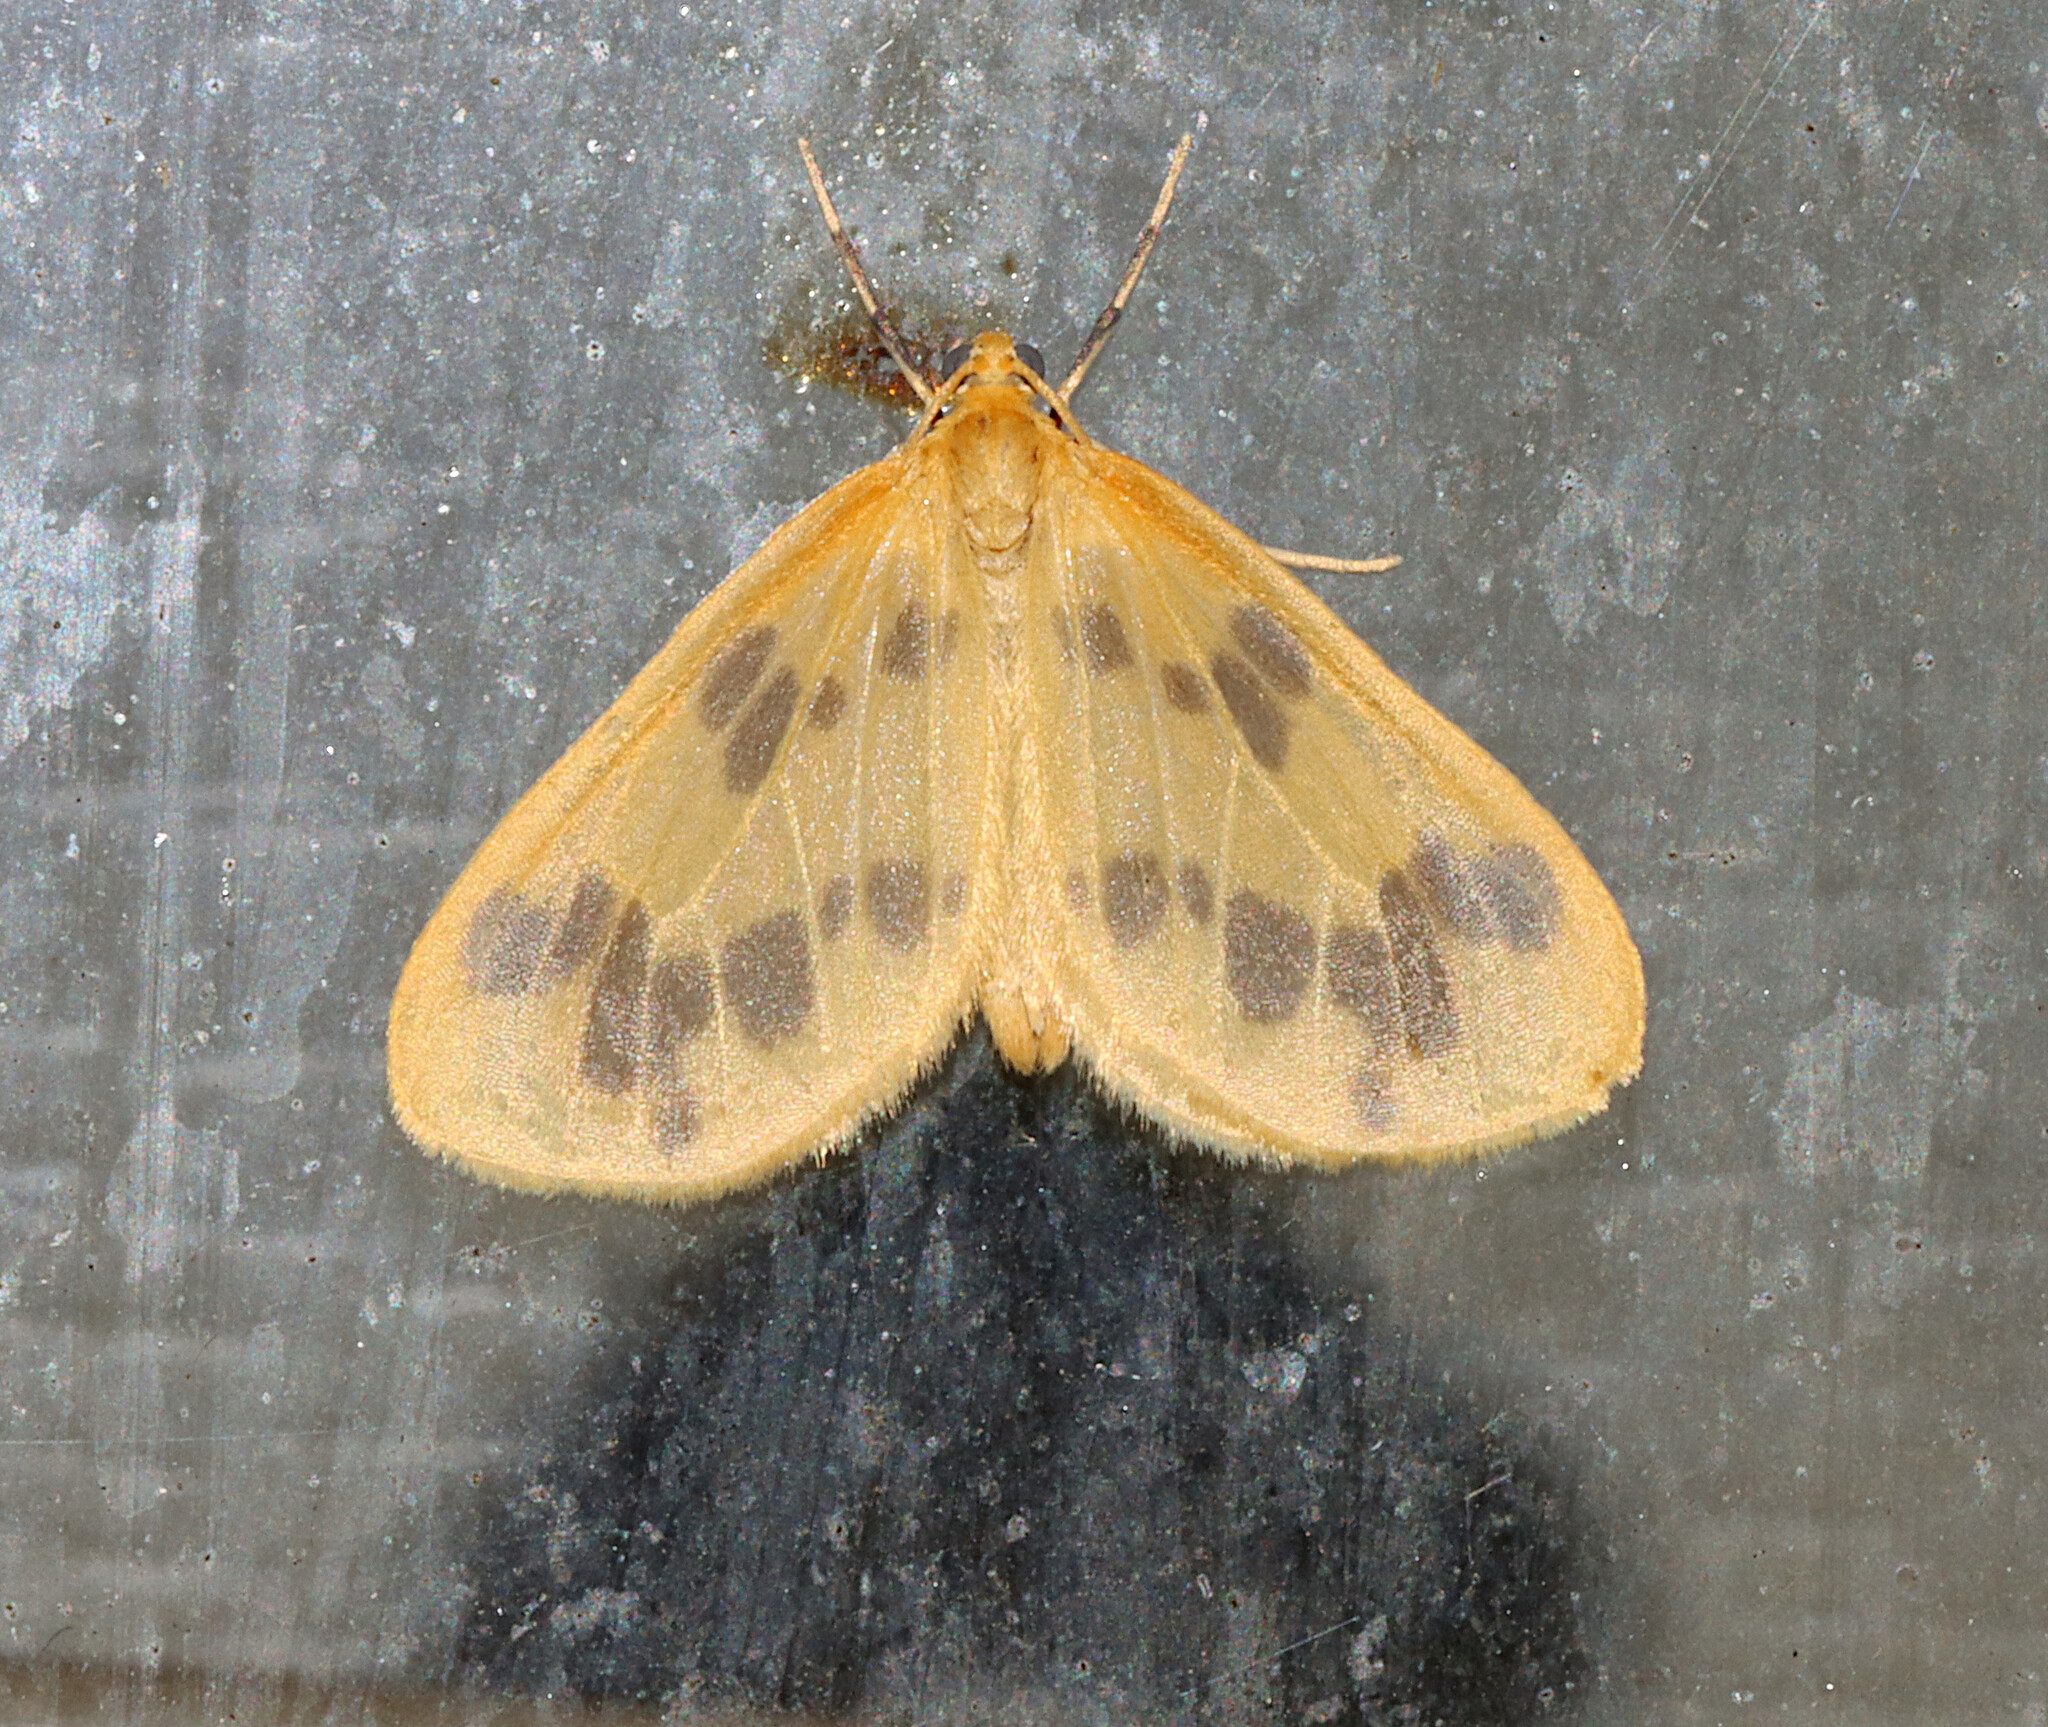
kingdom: Animalia
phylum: Arthropoda
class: Insecta
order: Lepidoptera
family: Geometridae
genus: Eubaphe
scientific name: Eubaphe mendica
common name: Beggar
